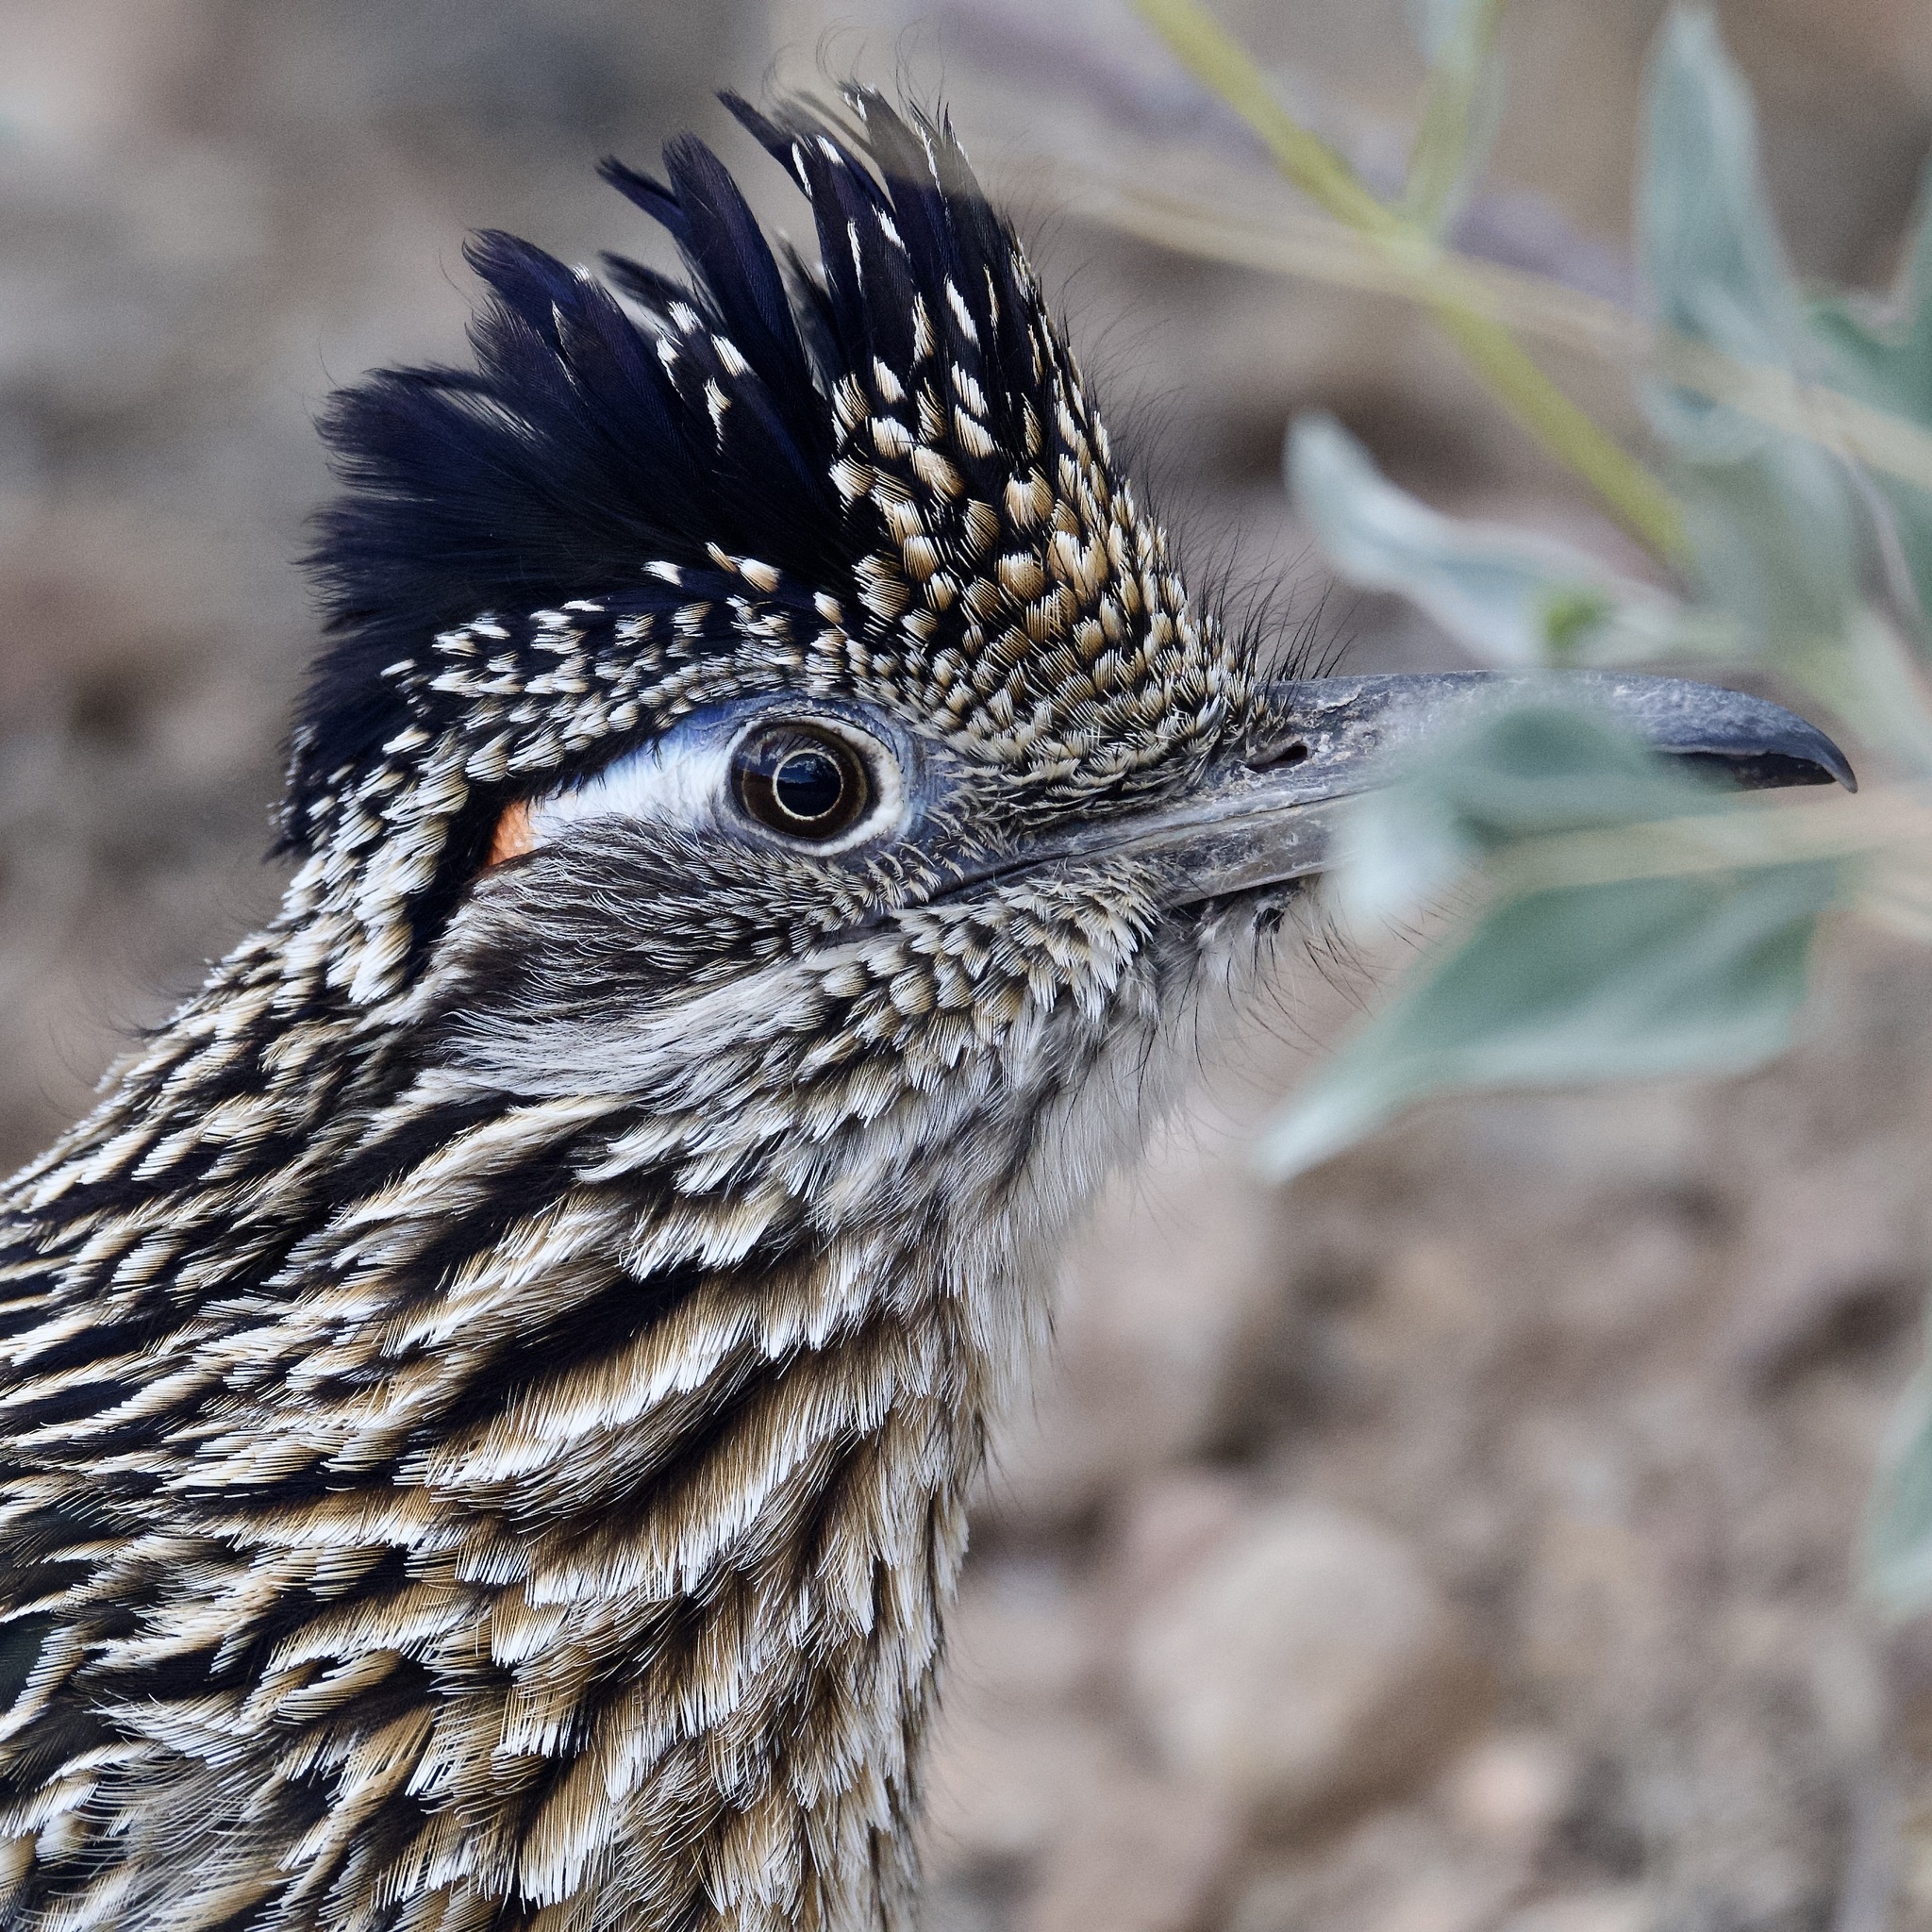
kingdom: Animalia
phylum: Chordata
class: Aves
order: Cuculiformes
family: Cuculidae
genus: Geococcyx
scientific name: Geococcyx californianus
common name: Greater roadrunner
